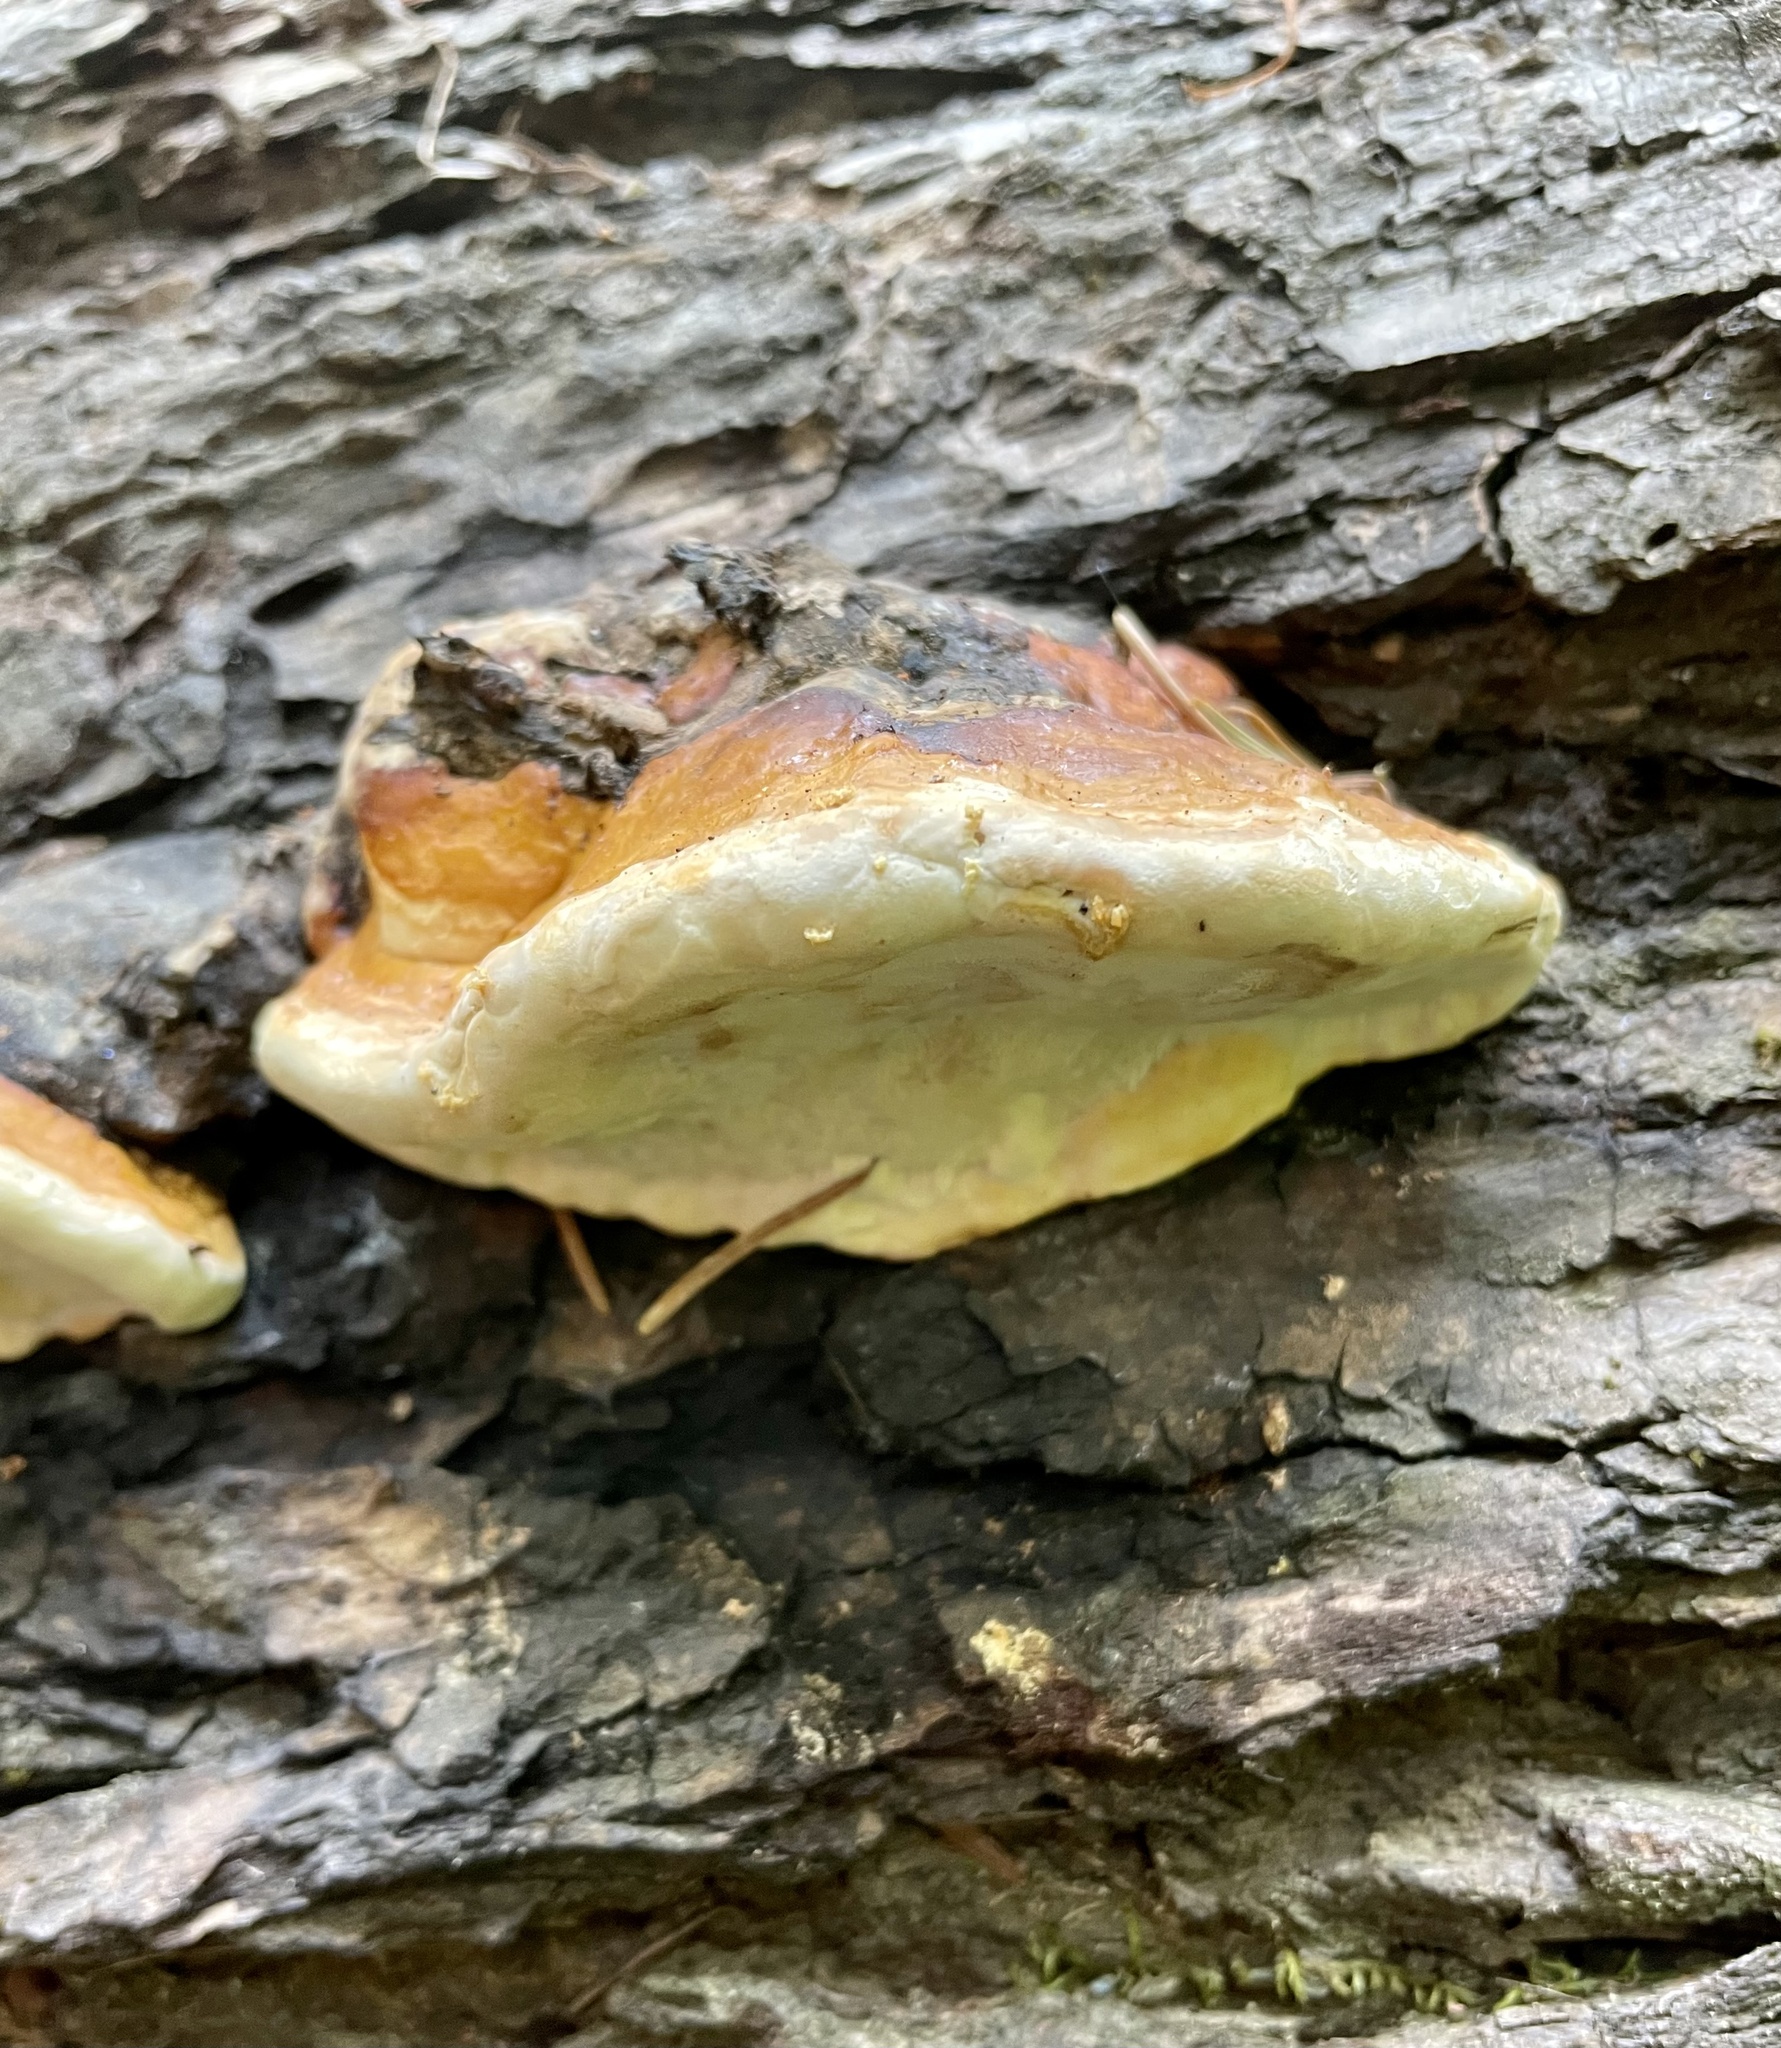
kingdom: Fungi
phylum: Basidiomycota
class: Agaricomycetes
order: Polyporales
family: Fomitopsidaceae
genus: Fomitopsis
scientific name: Fomitopsis mounceae
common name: Northern red belt
